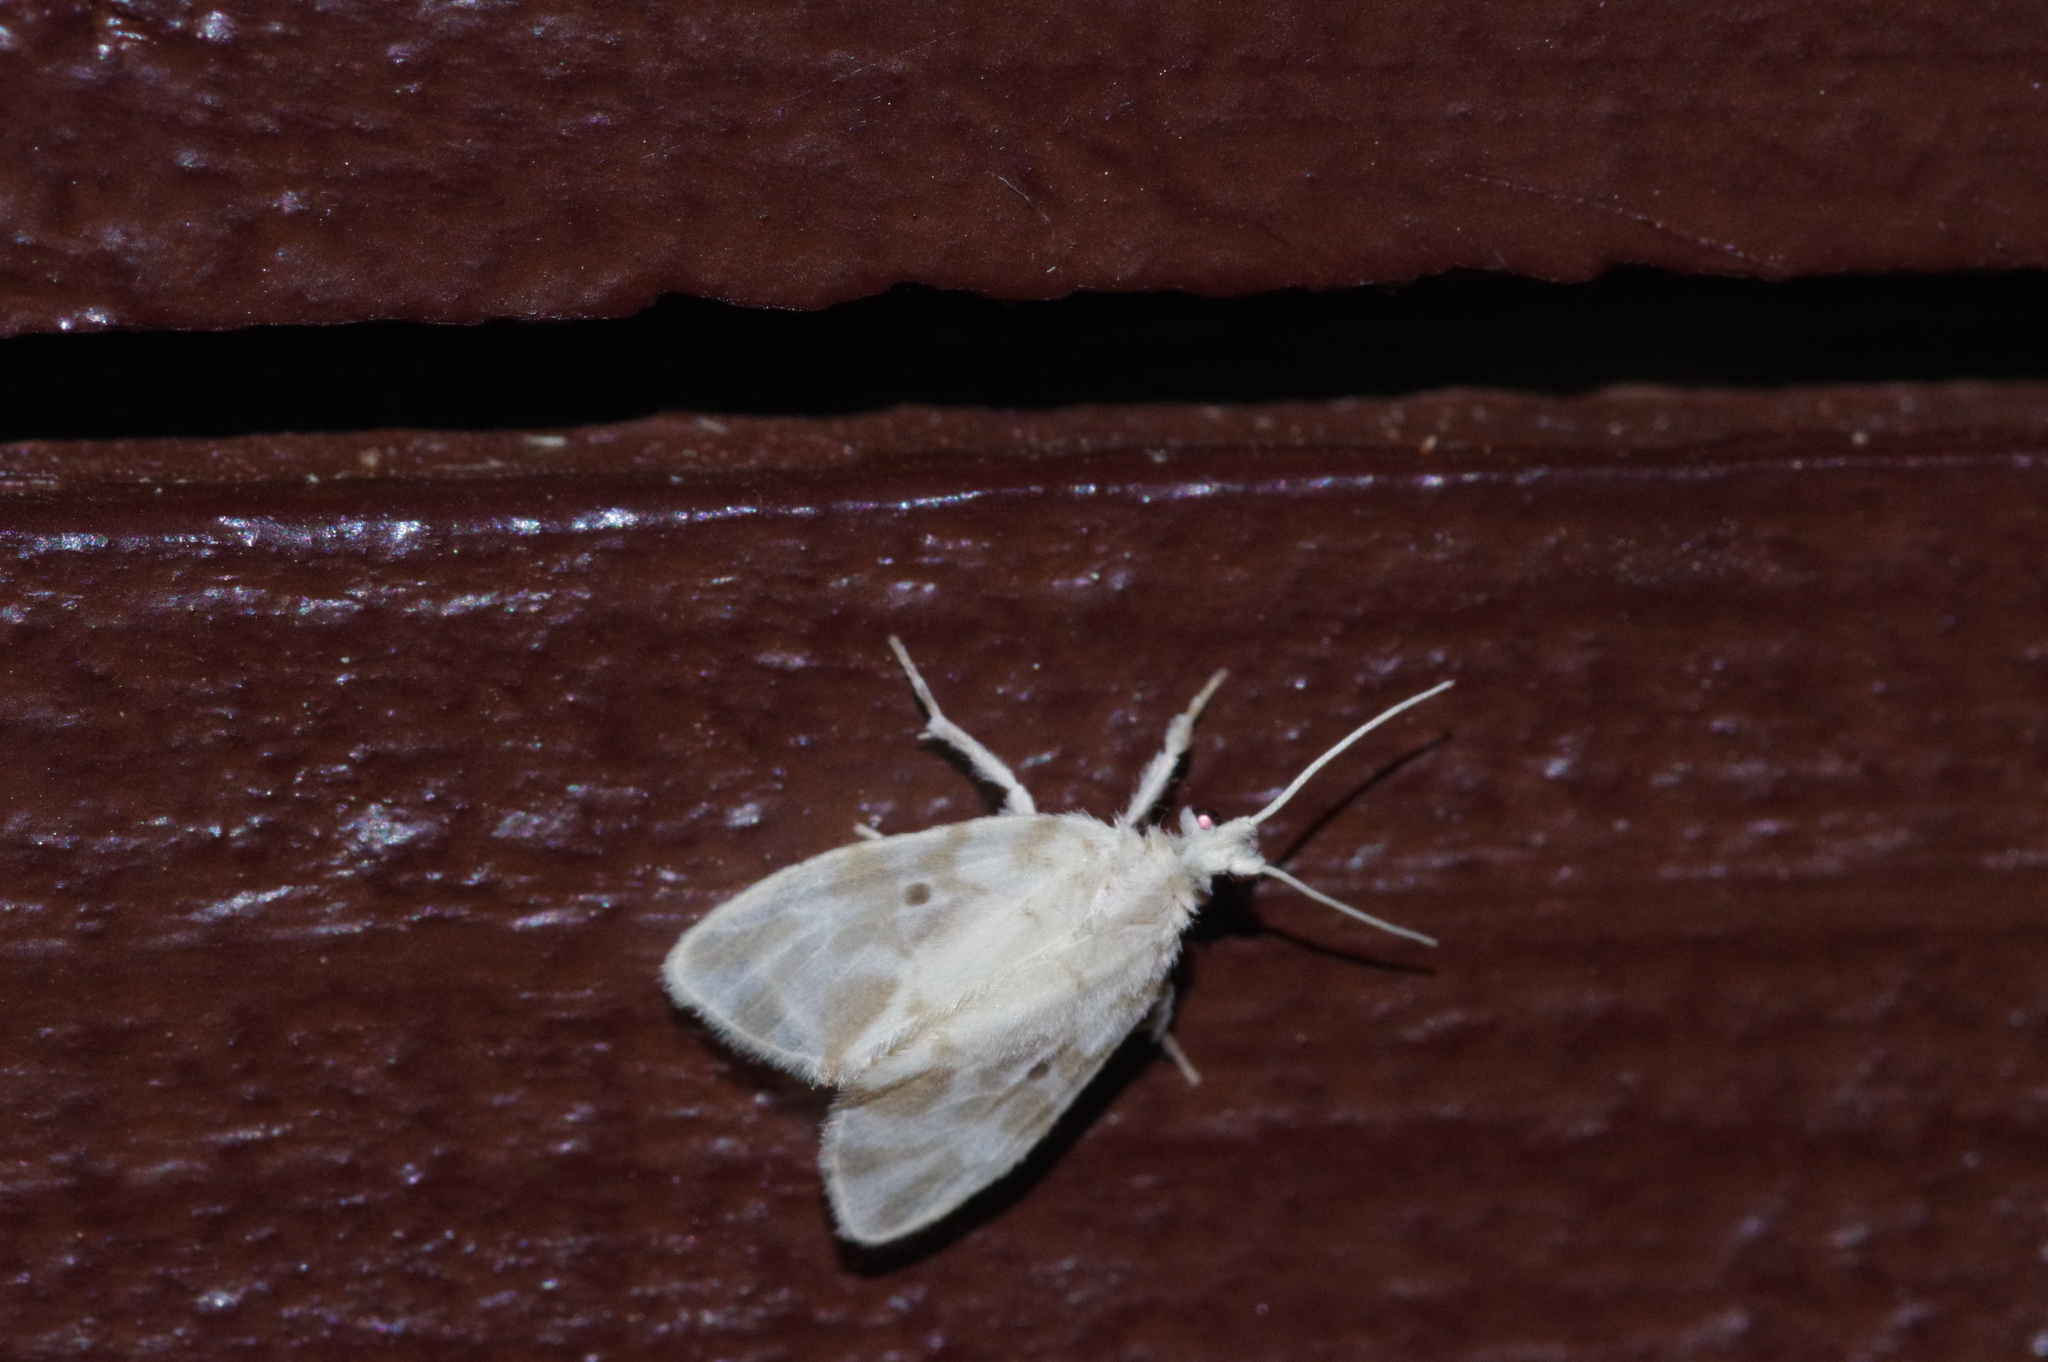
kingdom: Animalia
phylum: Arthropoda
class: Insecta
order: Lepidoptera
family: Erebidae
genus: Nudaria
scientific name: Nudaria ranruna
